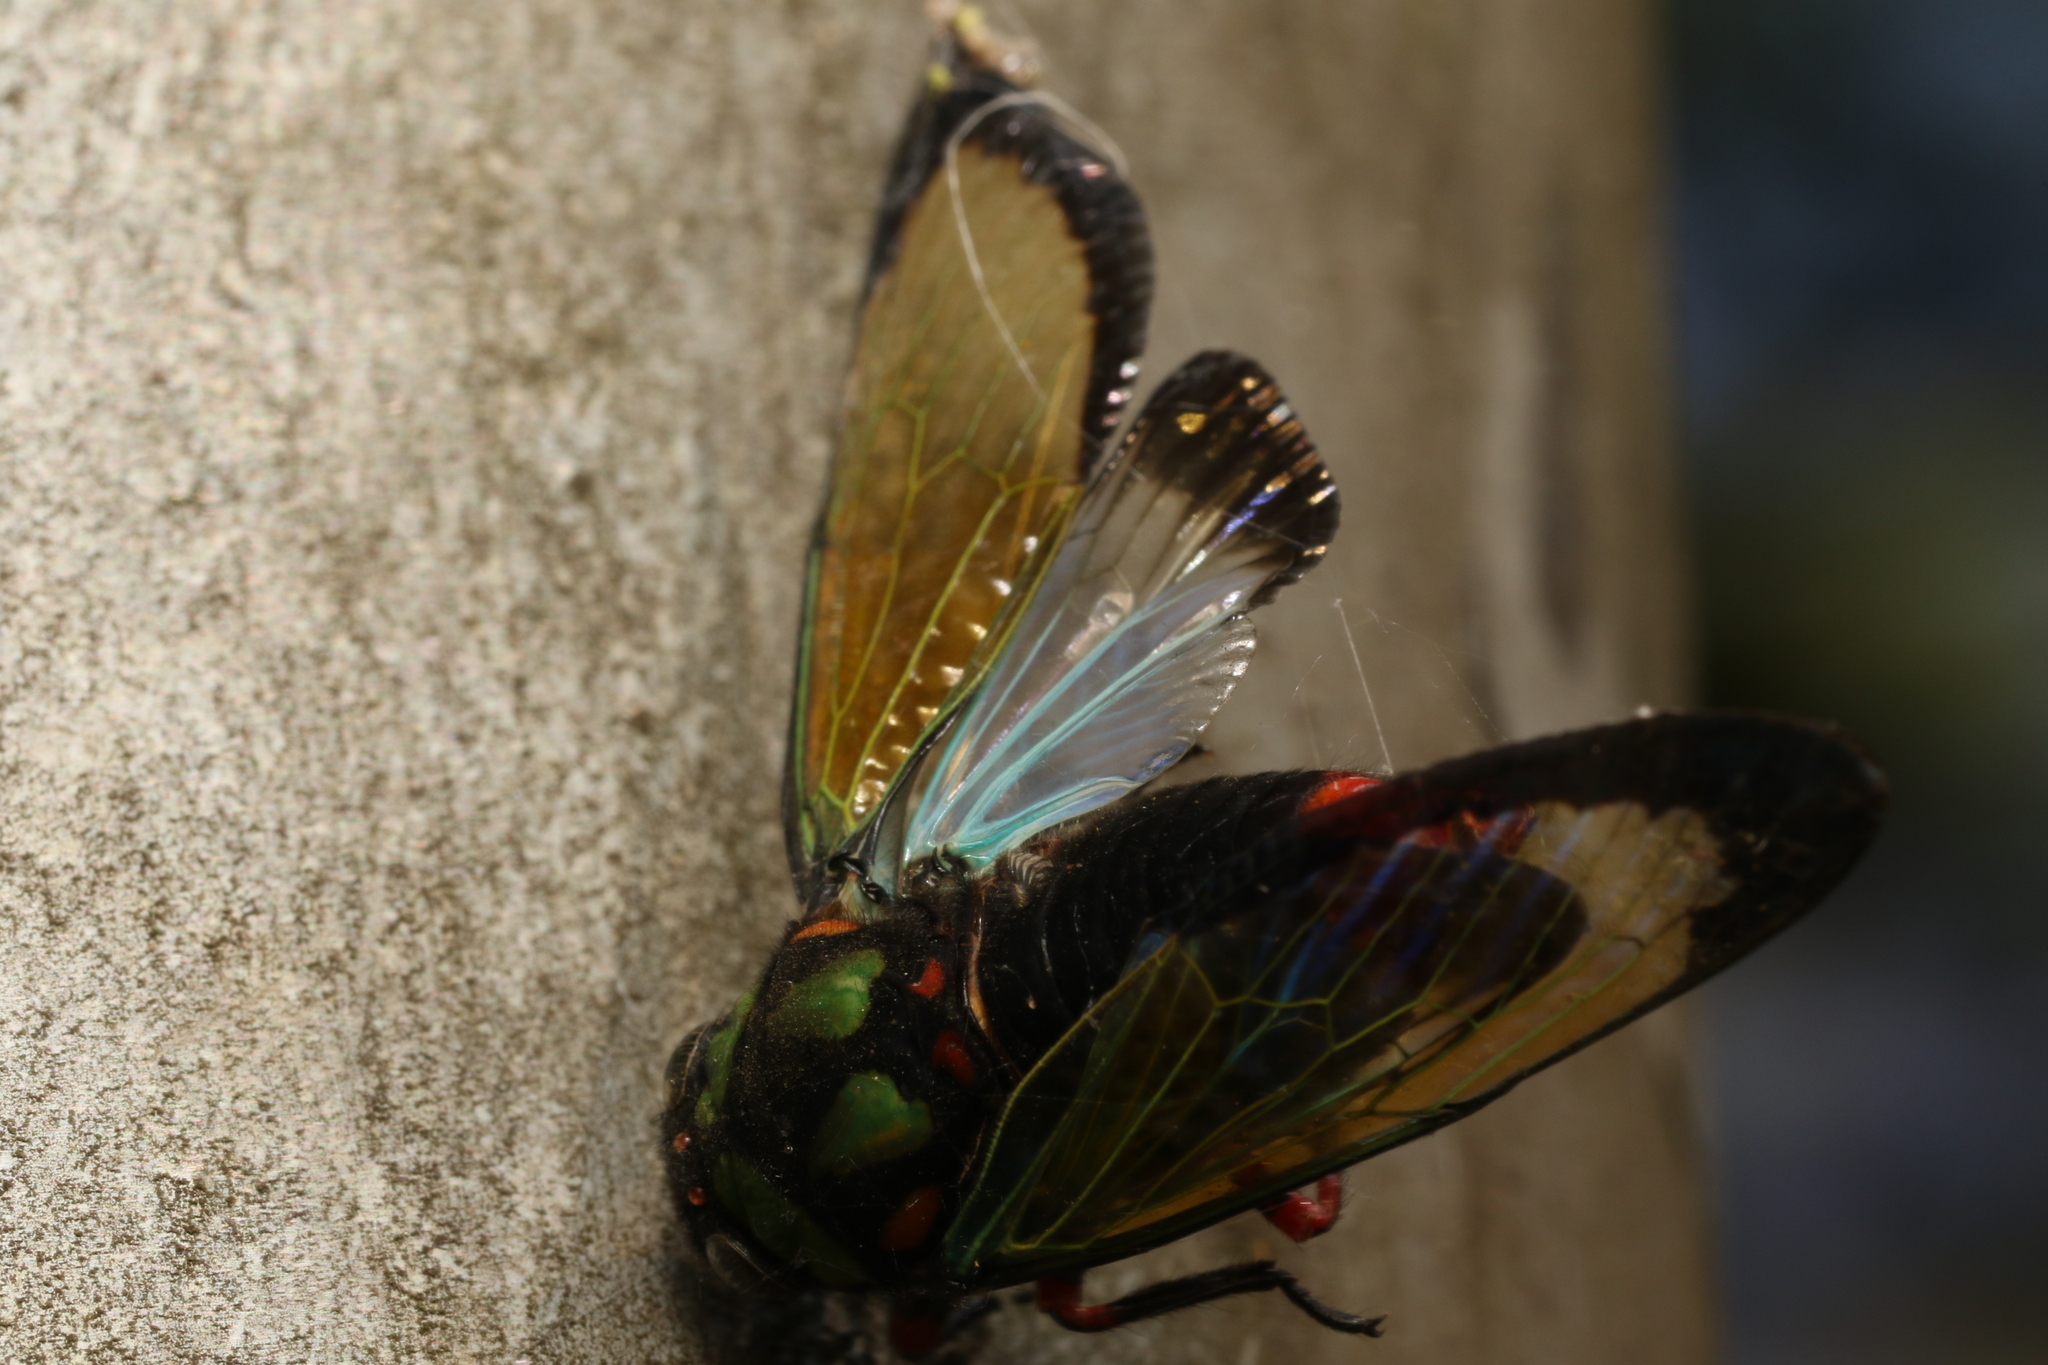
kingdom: Animalia
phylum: Arthropoda
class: Insecta
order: Hemiptera
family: Cicadidae
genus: Carineta
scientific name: Carineta diardi
